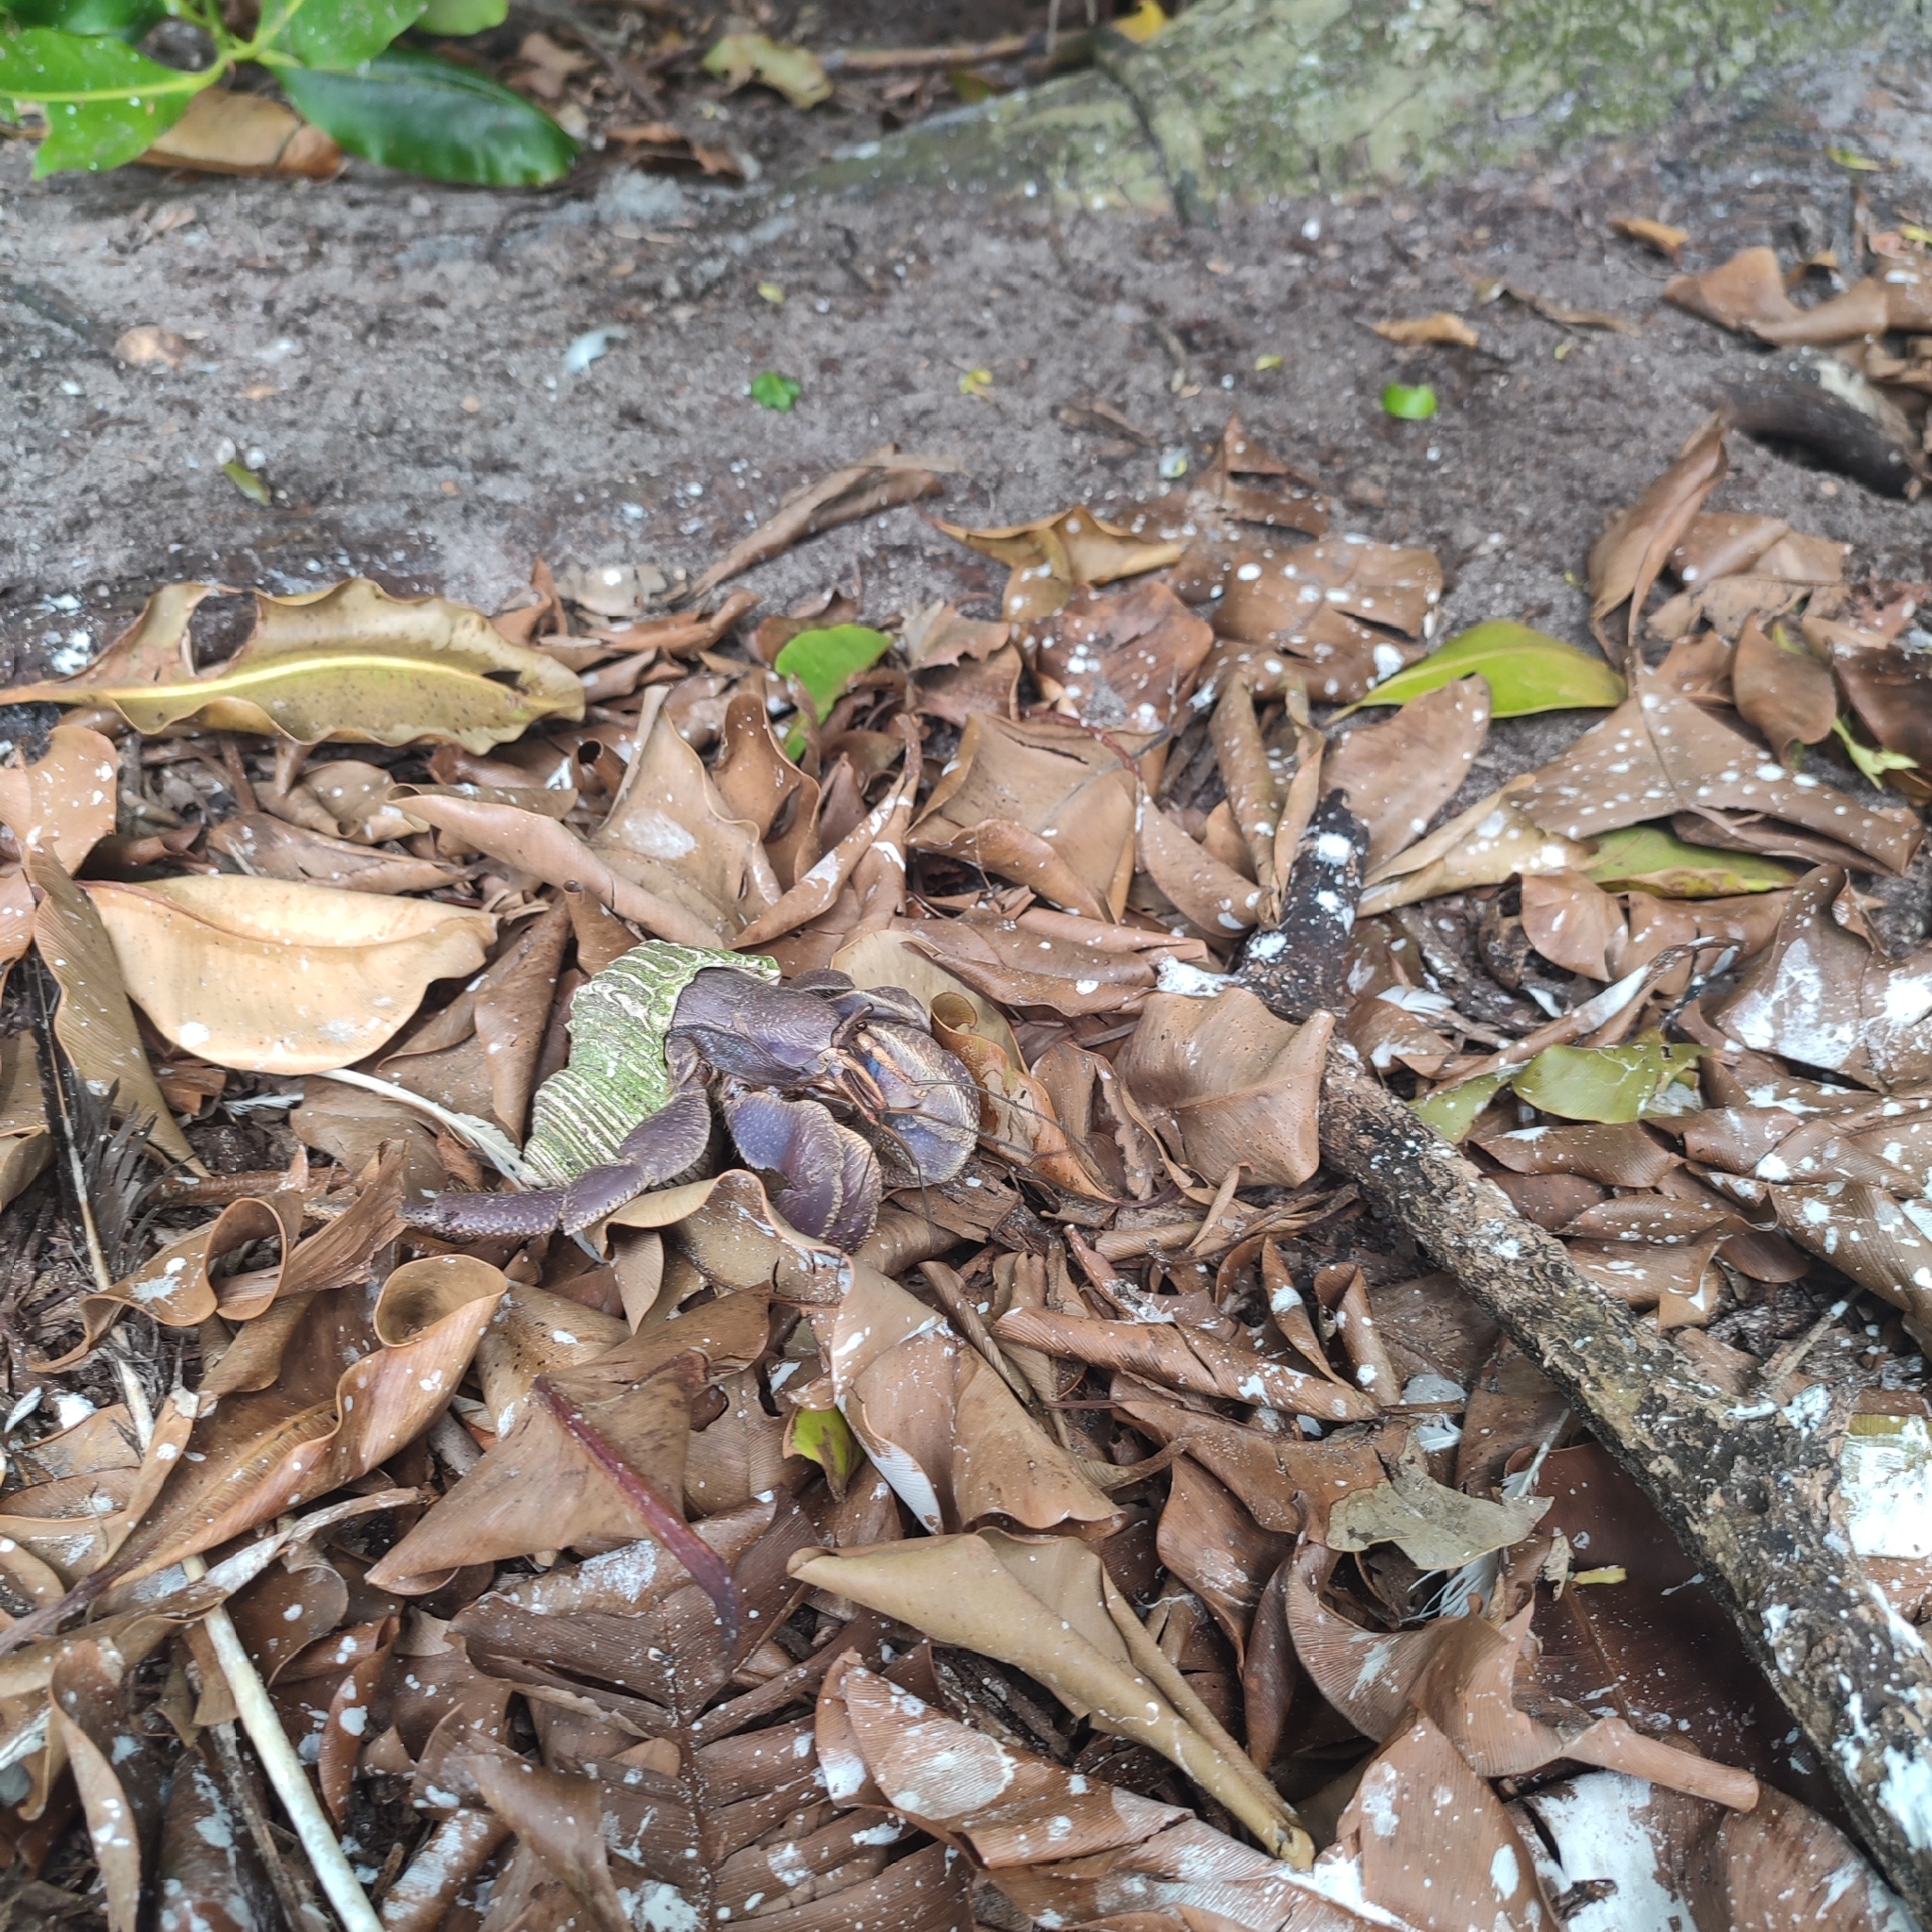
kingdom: Animalia
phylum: Arthropoda
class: Malacostraca
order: Decapoda
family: Coenobitidae
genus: Coenobita
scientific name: Coenobita brevimanus
